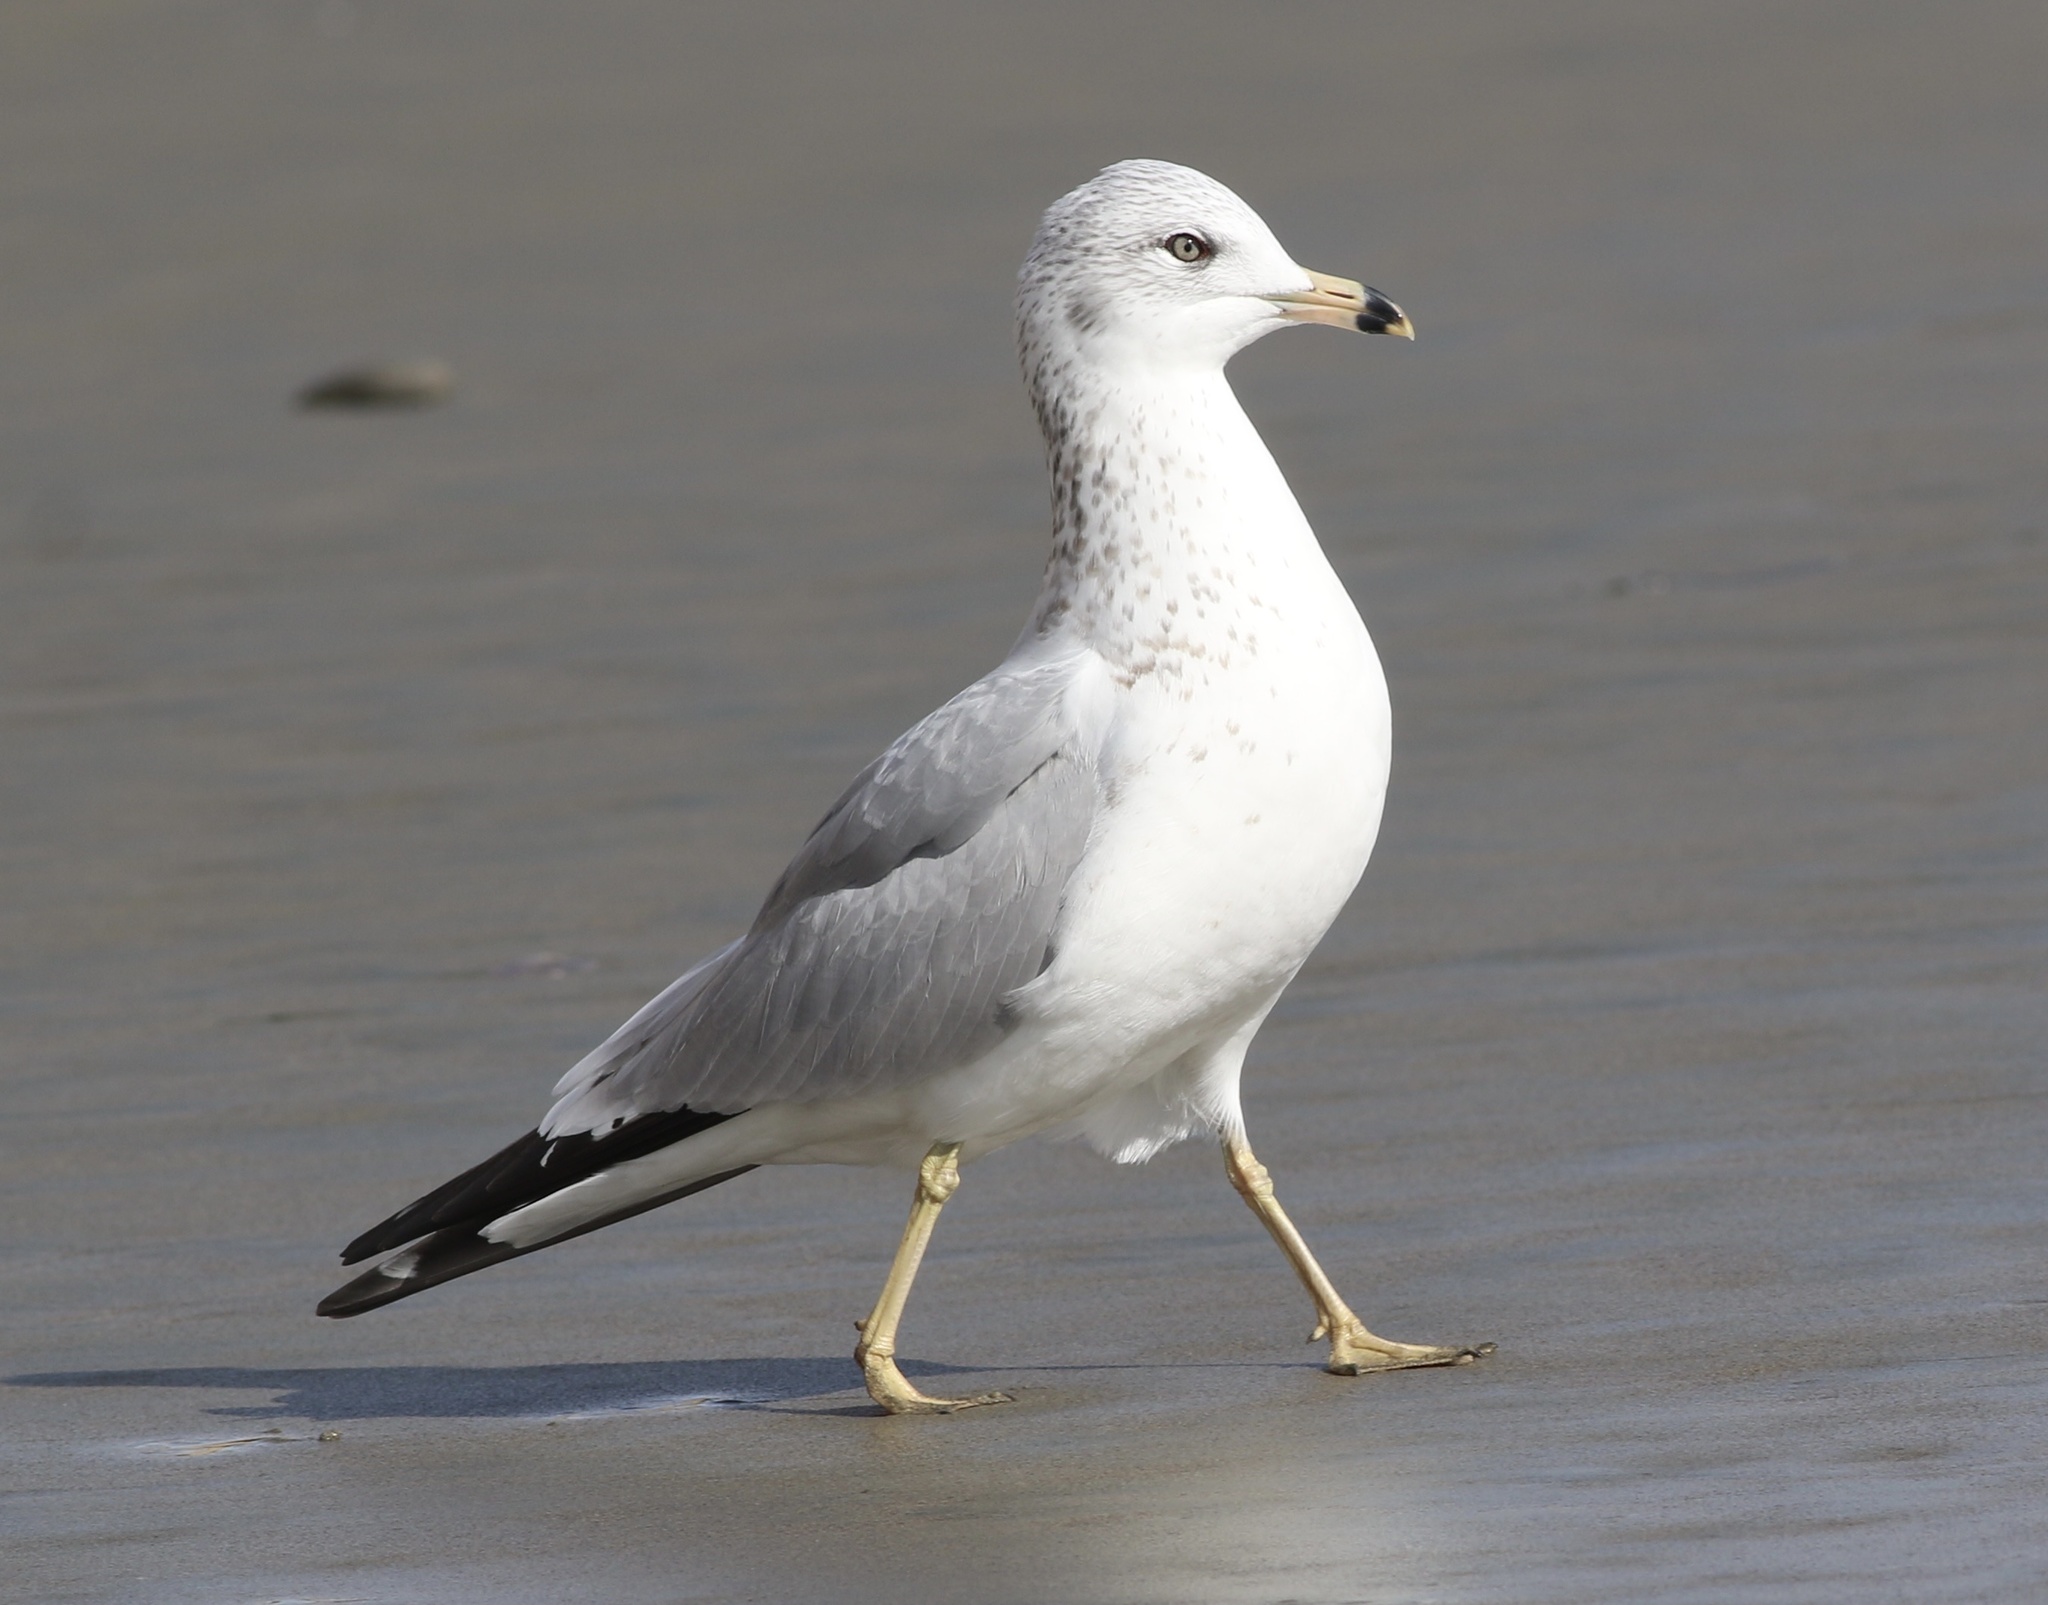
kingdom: Animalia
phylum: Chordata
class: Aves
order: Charadriiformes
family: Laridae
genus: Larus
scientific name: Larus delawarensis
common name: Ring-billed gull
